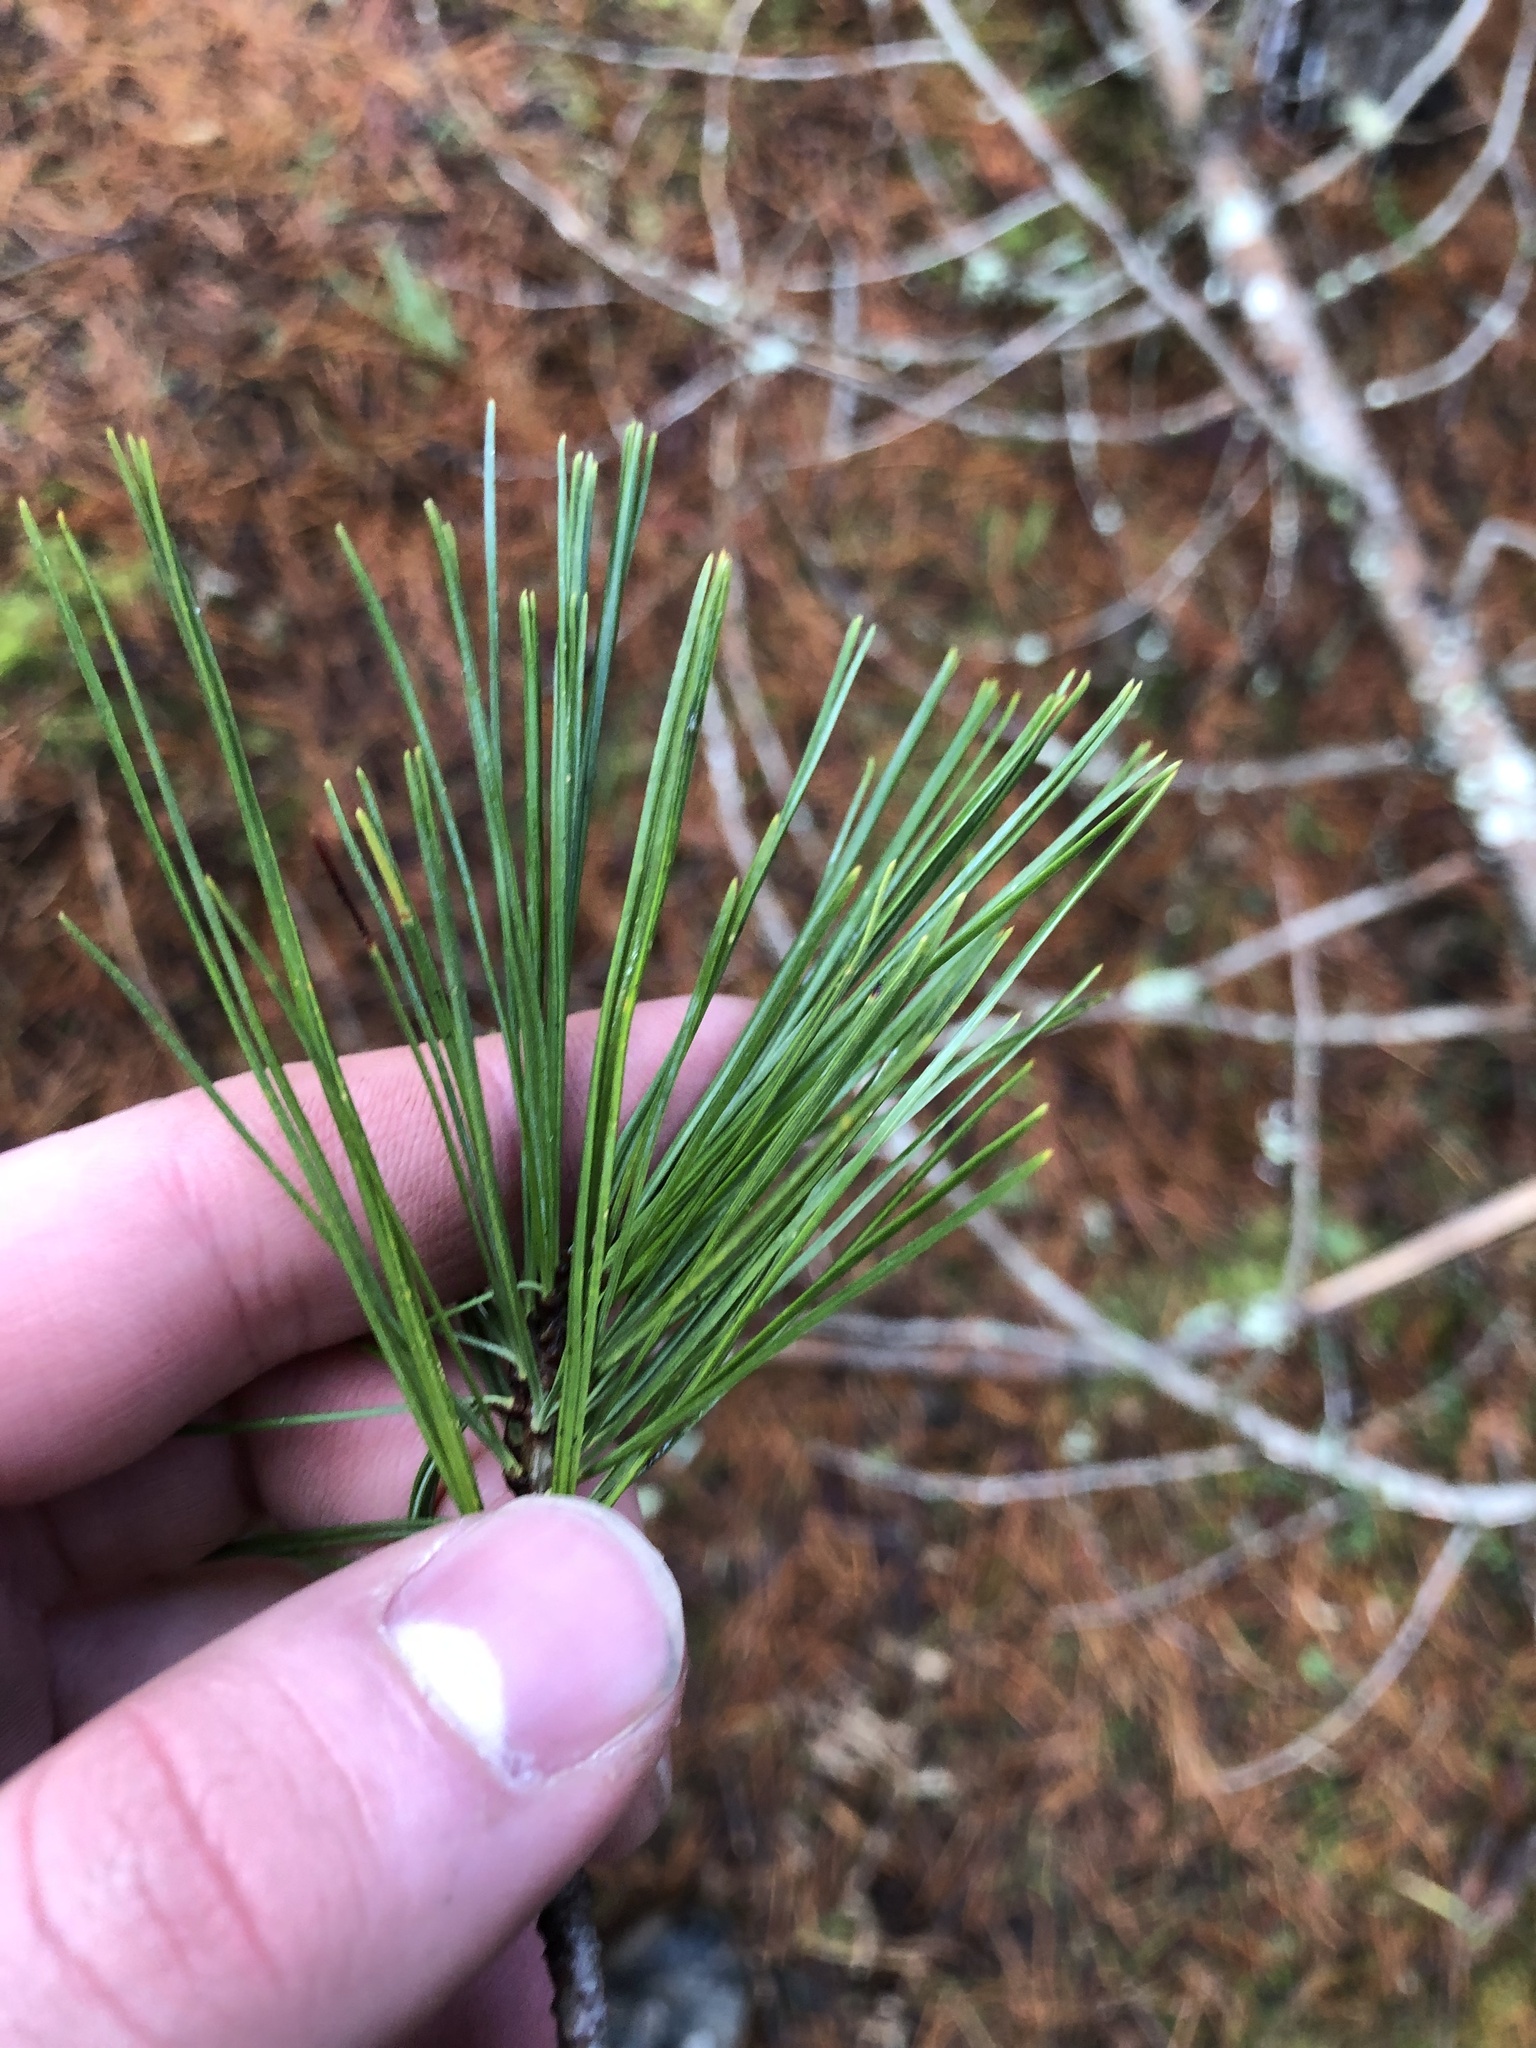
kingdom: Plantae
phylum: Tracheophyta
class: Pinopsida
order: Pinales
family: Pinaceae
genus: Pinus
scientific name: Pinus monticola
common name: Western white pine
